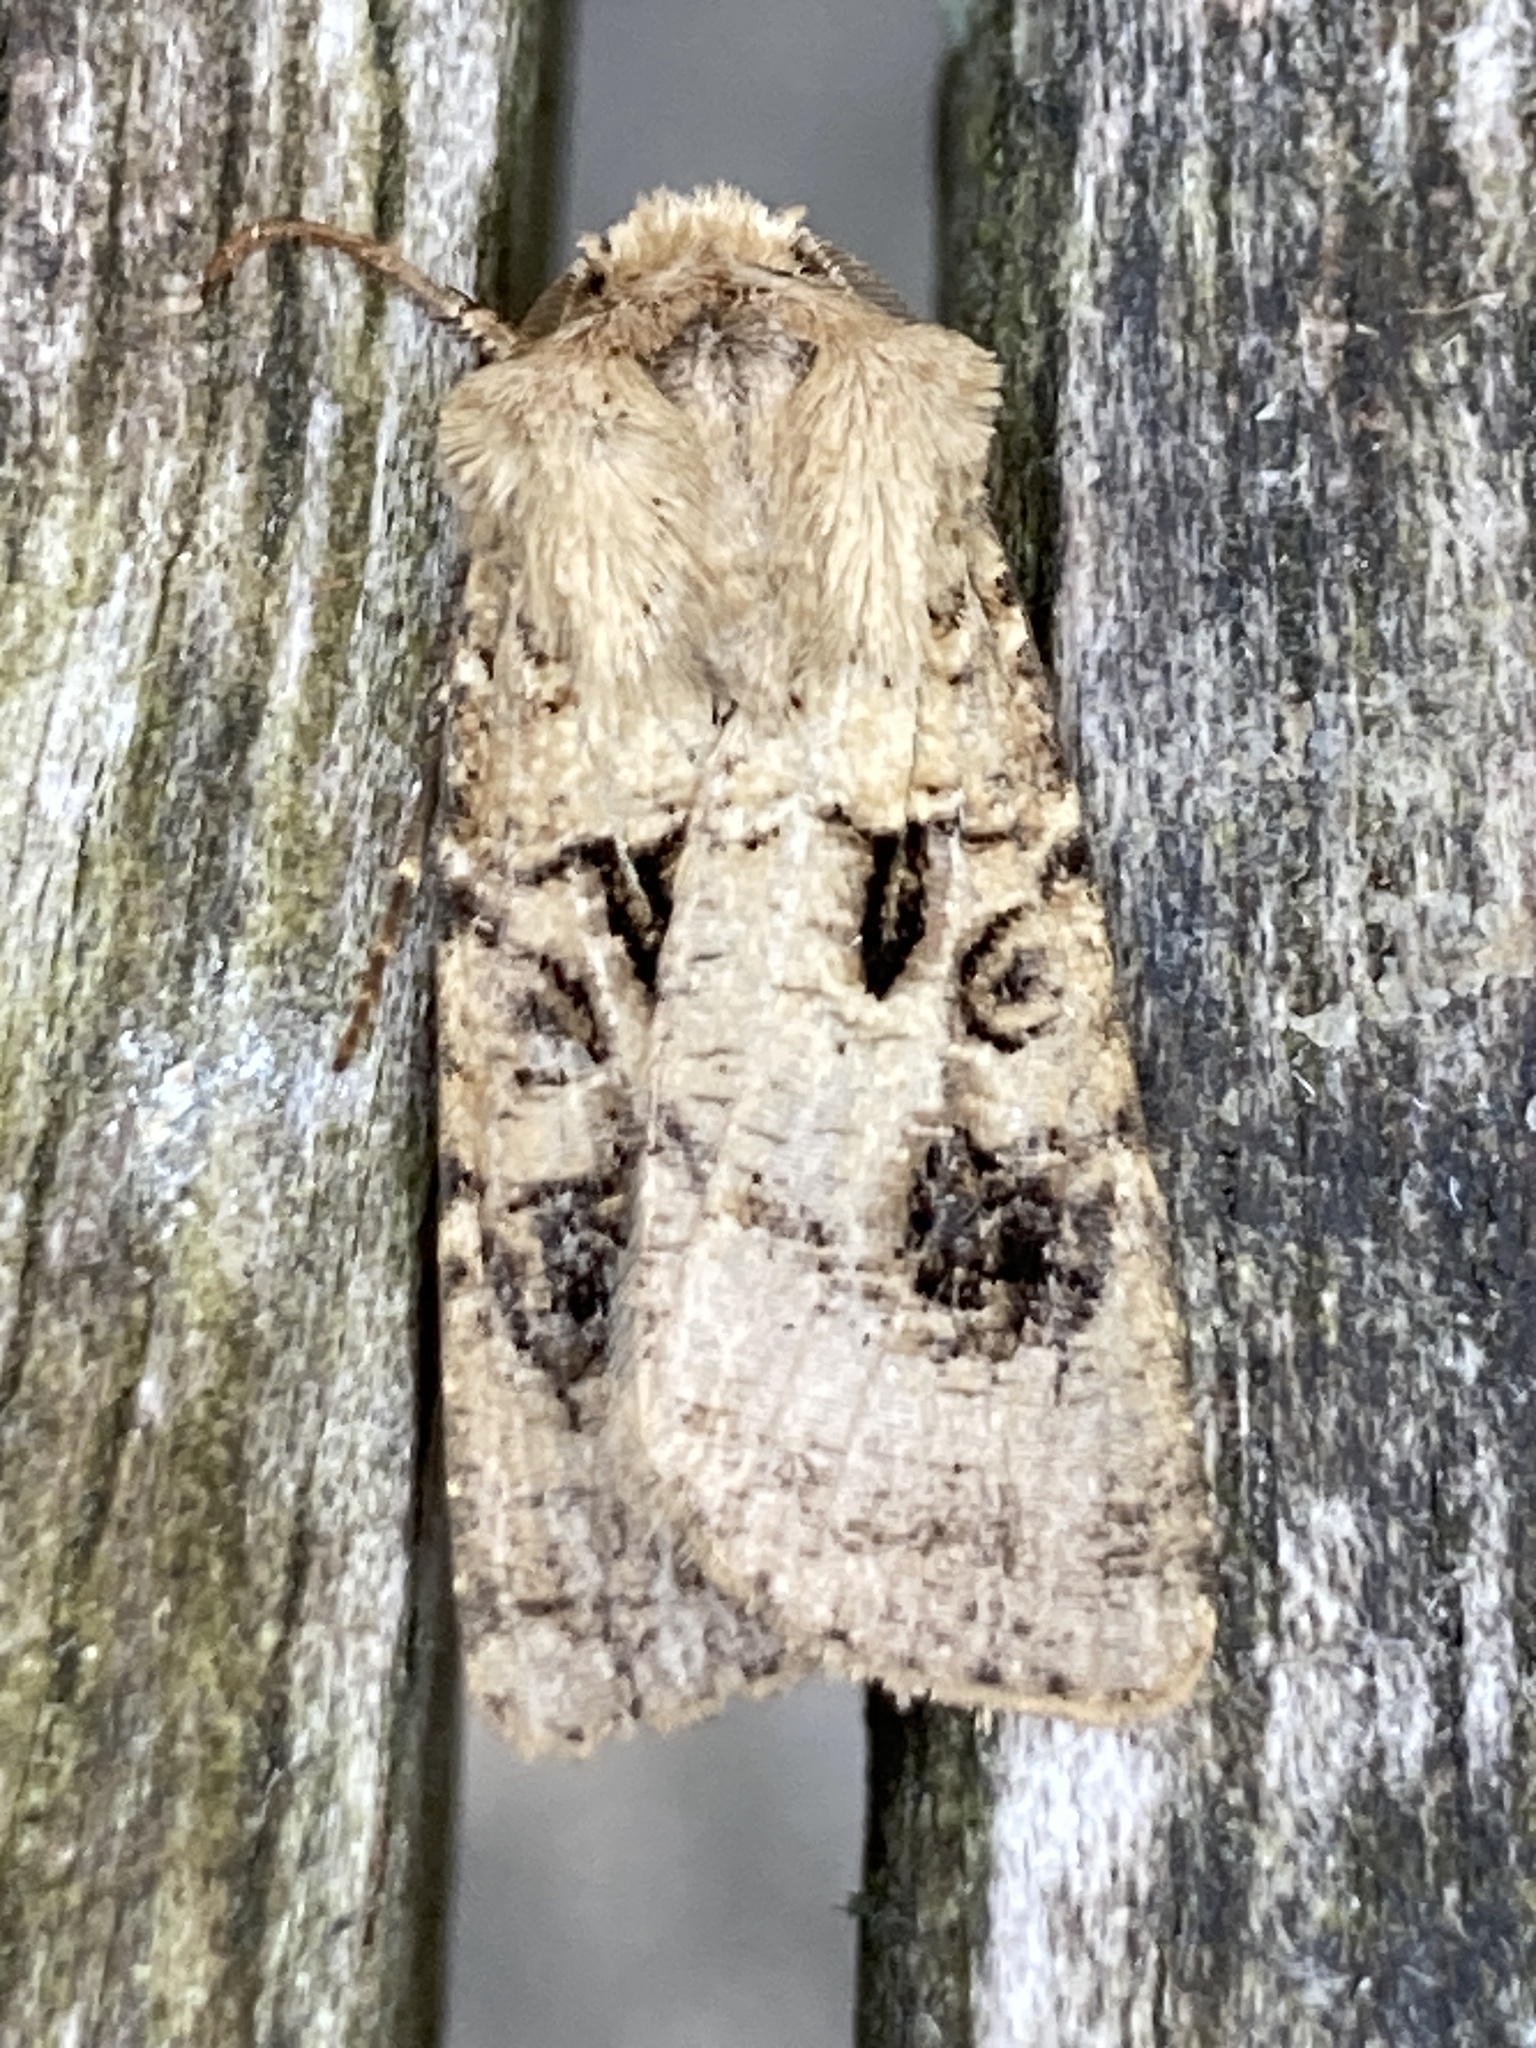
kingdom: Animalia
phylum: Arthropoda
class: Insecta
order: Lepidoptera
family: Noctuidae
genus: Agrotis
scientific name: Agrotis clavis
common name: Heart and club
